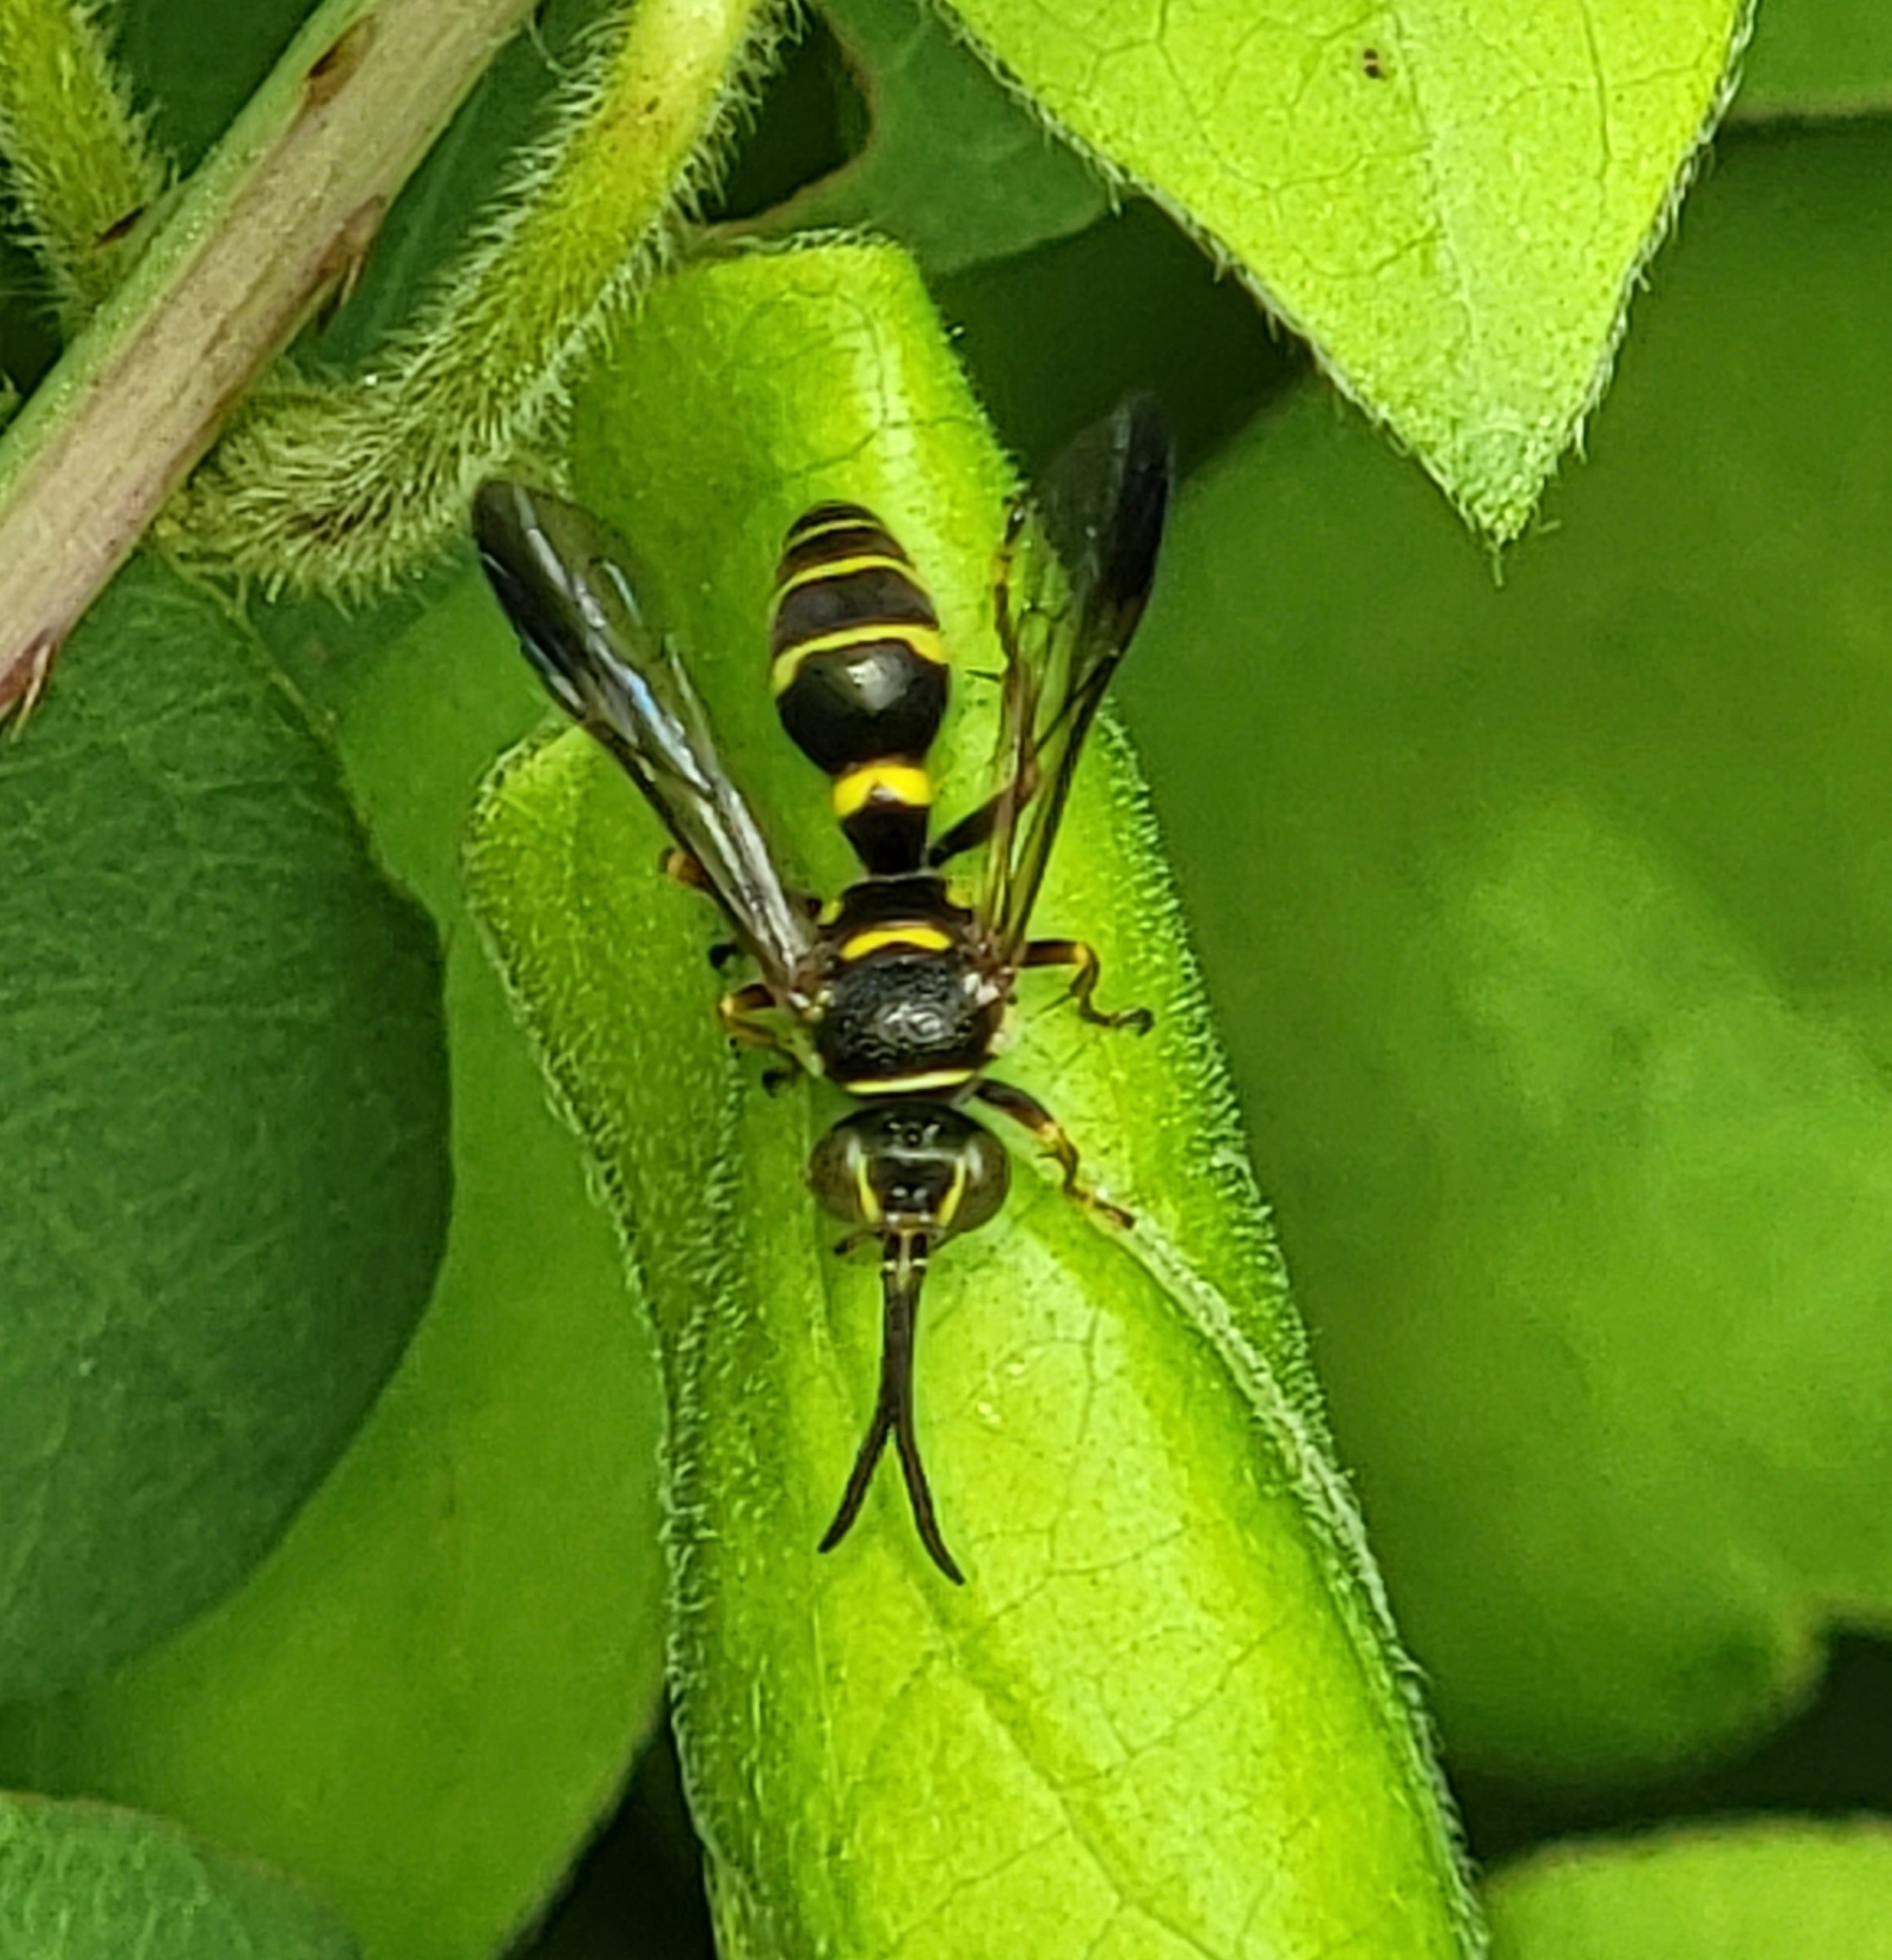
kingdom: Animalia
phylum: Arthropoda
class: Insecta
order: Hymenoptera
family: Crabronidae
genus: Psammaletes
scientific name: Psammaletes mexicanus
